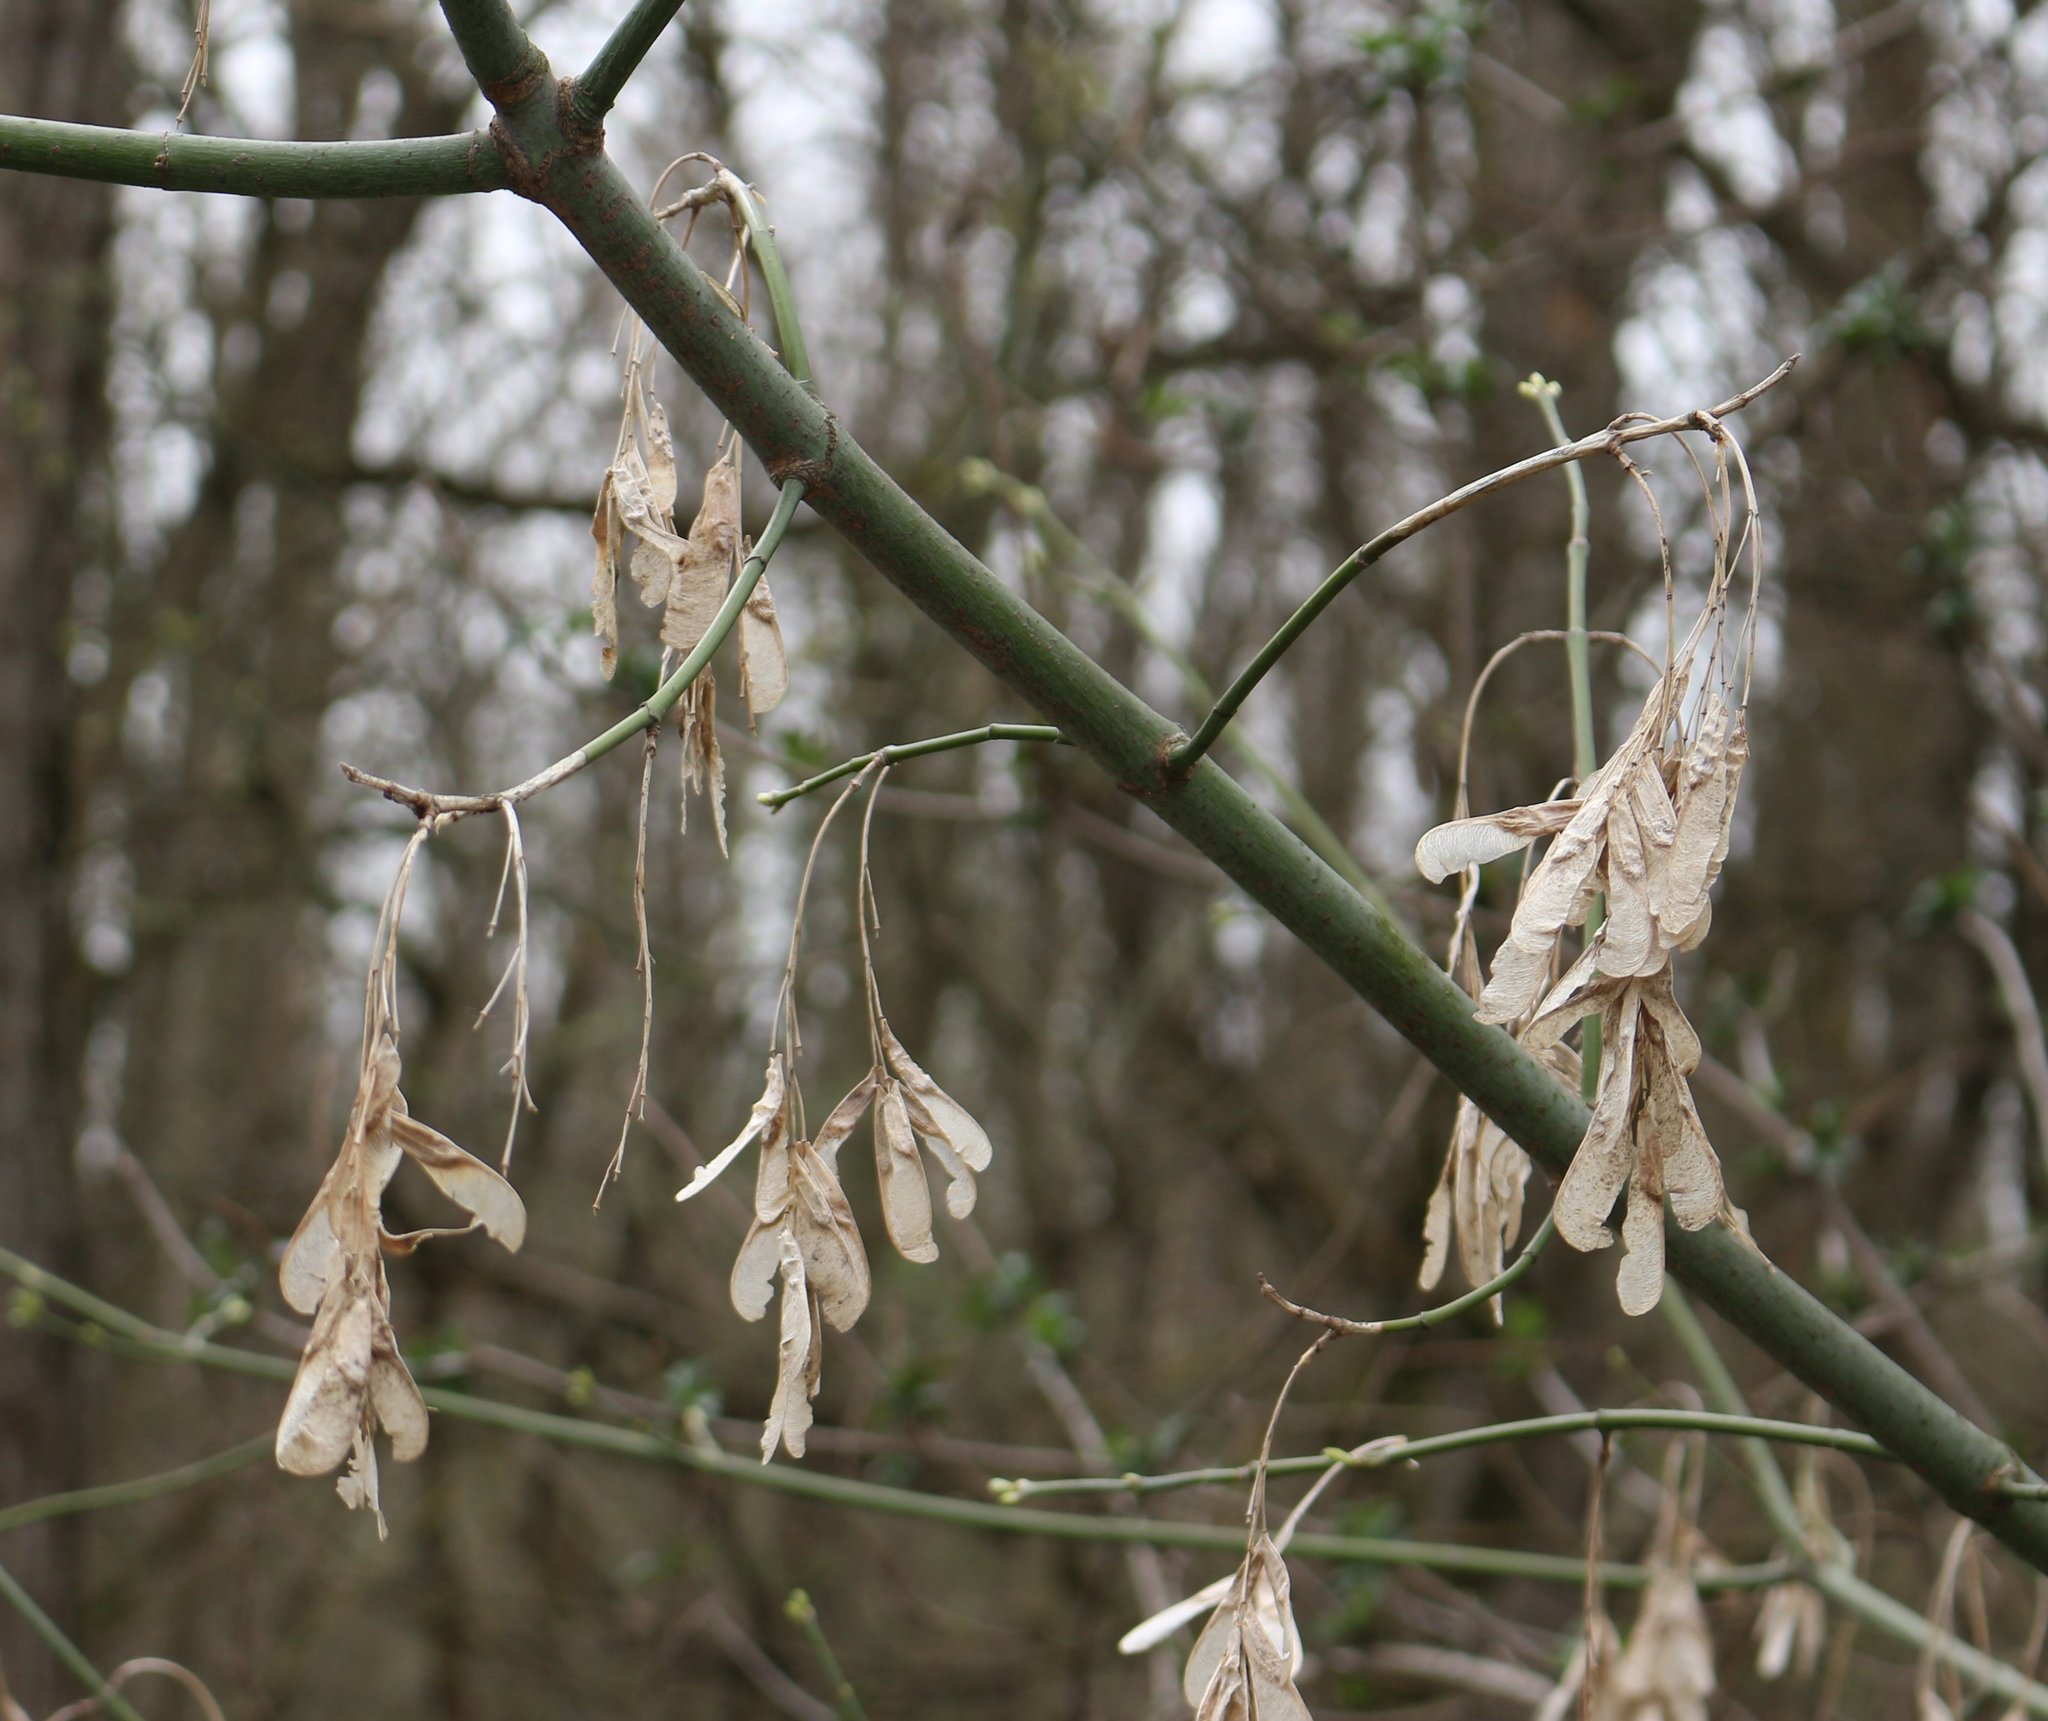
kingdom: Plantae
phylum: Tracheophyta
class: Magnoliopsida
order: Sapindales
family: Sapindaceae
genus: Acer
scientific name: Acer negundo
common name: Ashleaf maple
